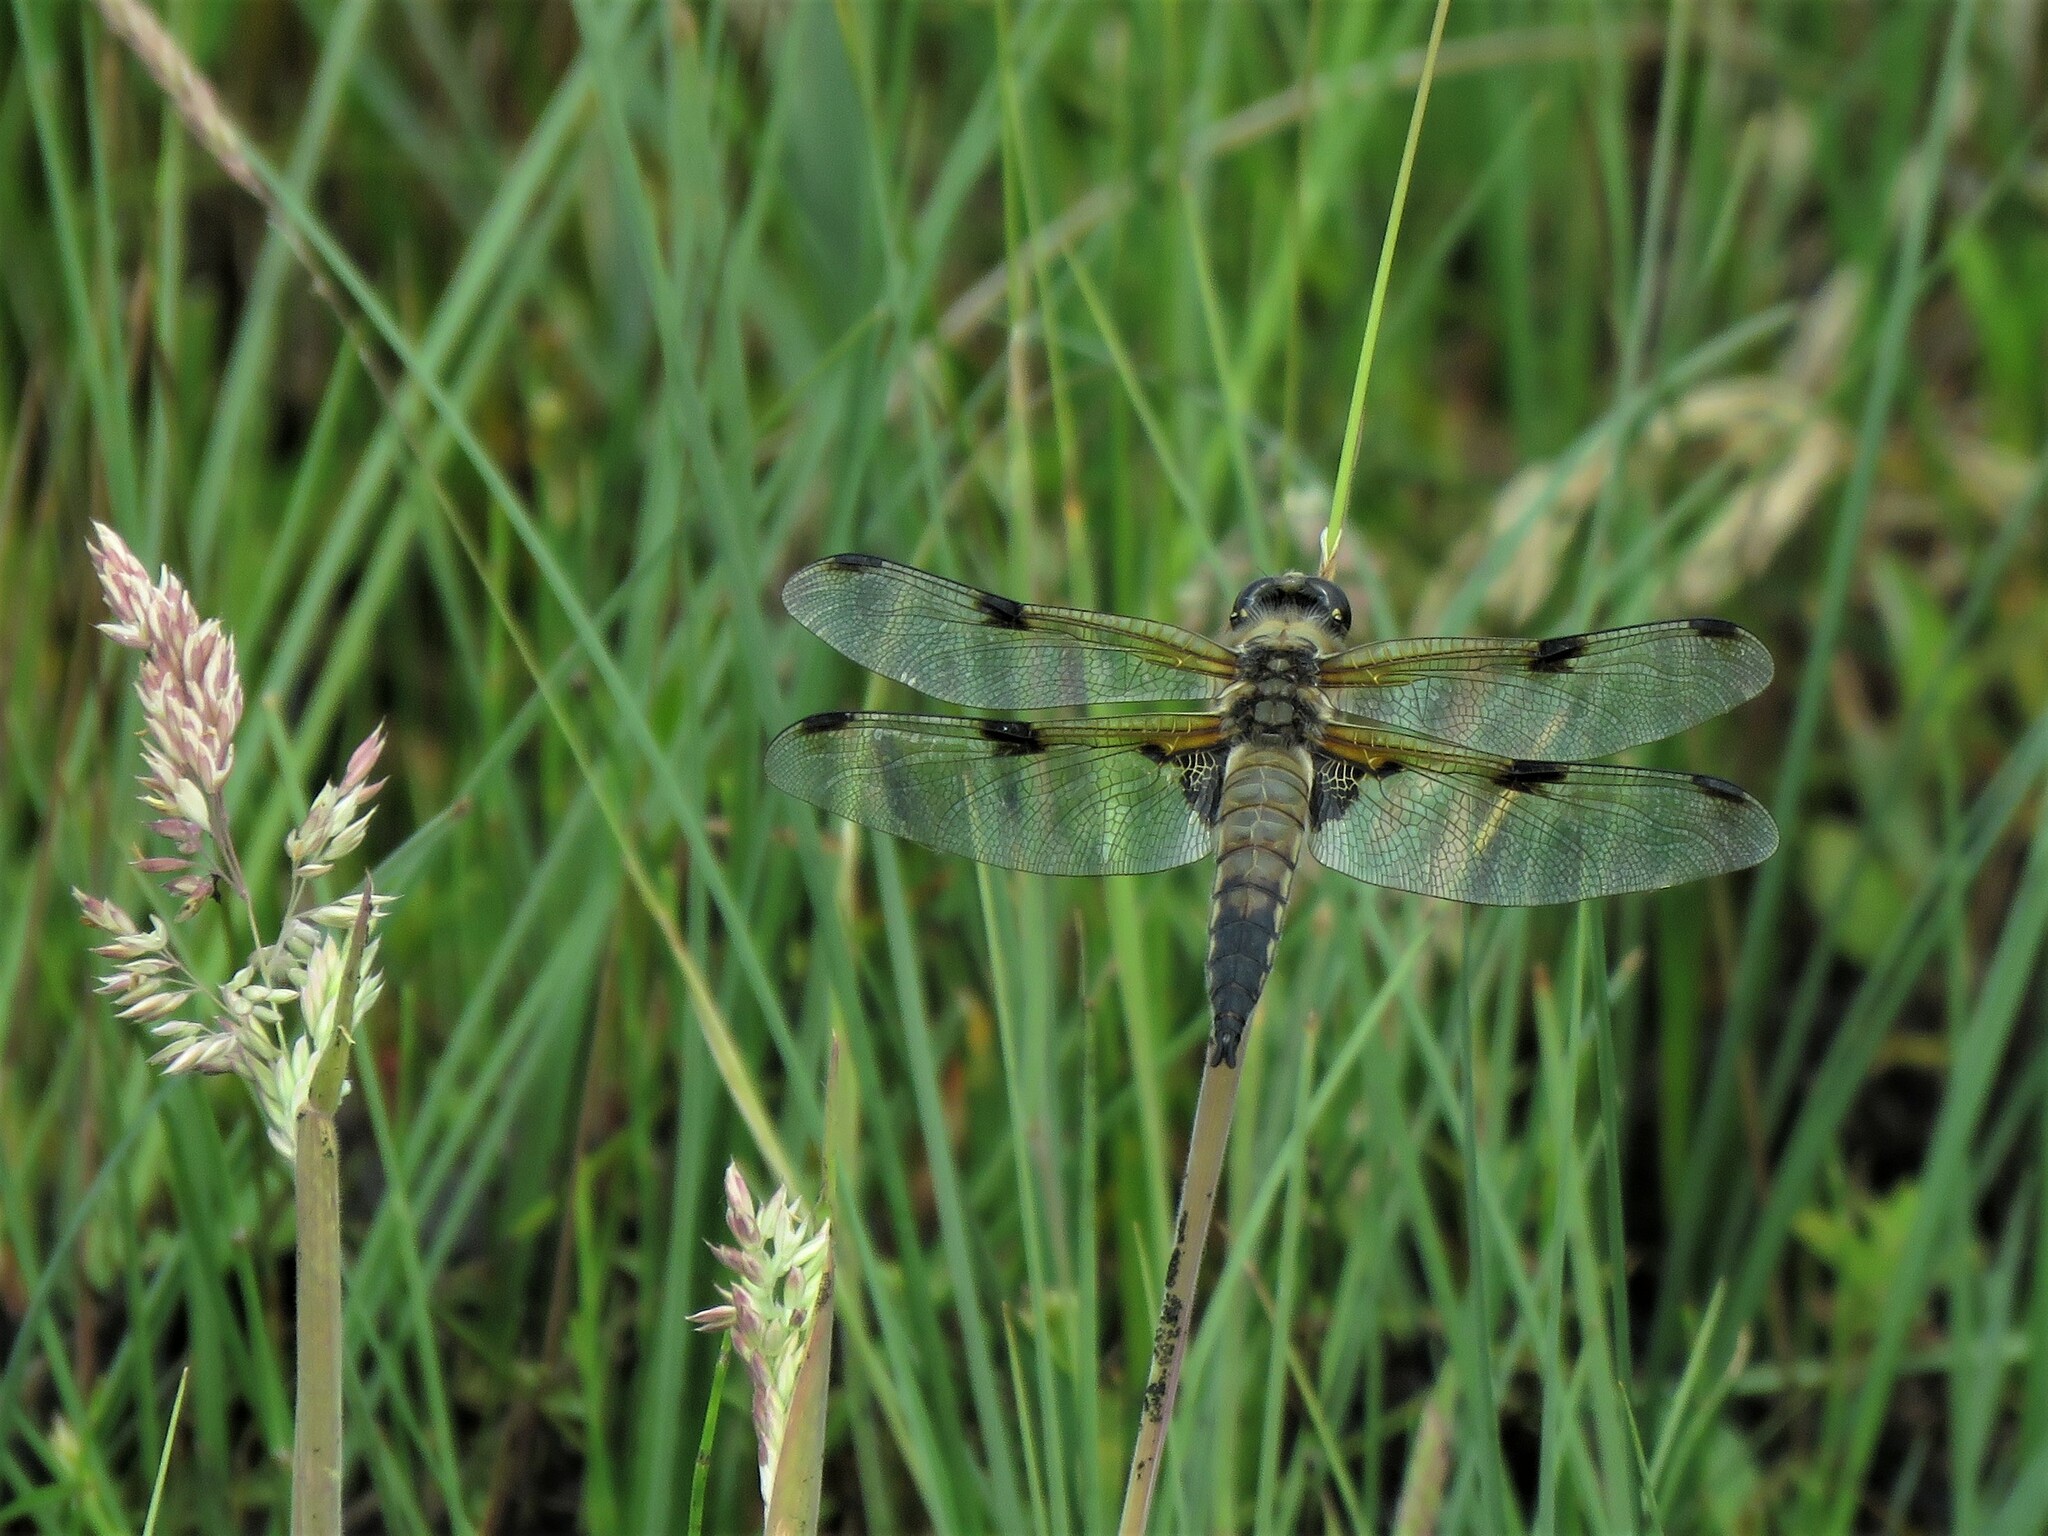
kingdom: Animalia
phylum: Arthropoda
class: Insecta
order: Odonata
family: Libellulidae
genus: Libellula
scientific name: Libellula quadrimaculata
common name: Four-spotted chaser
